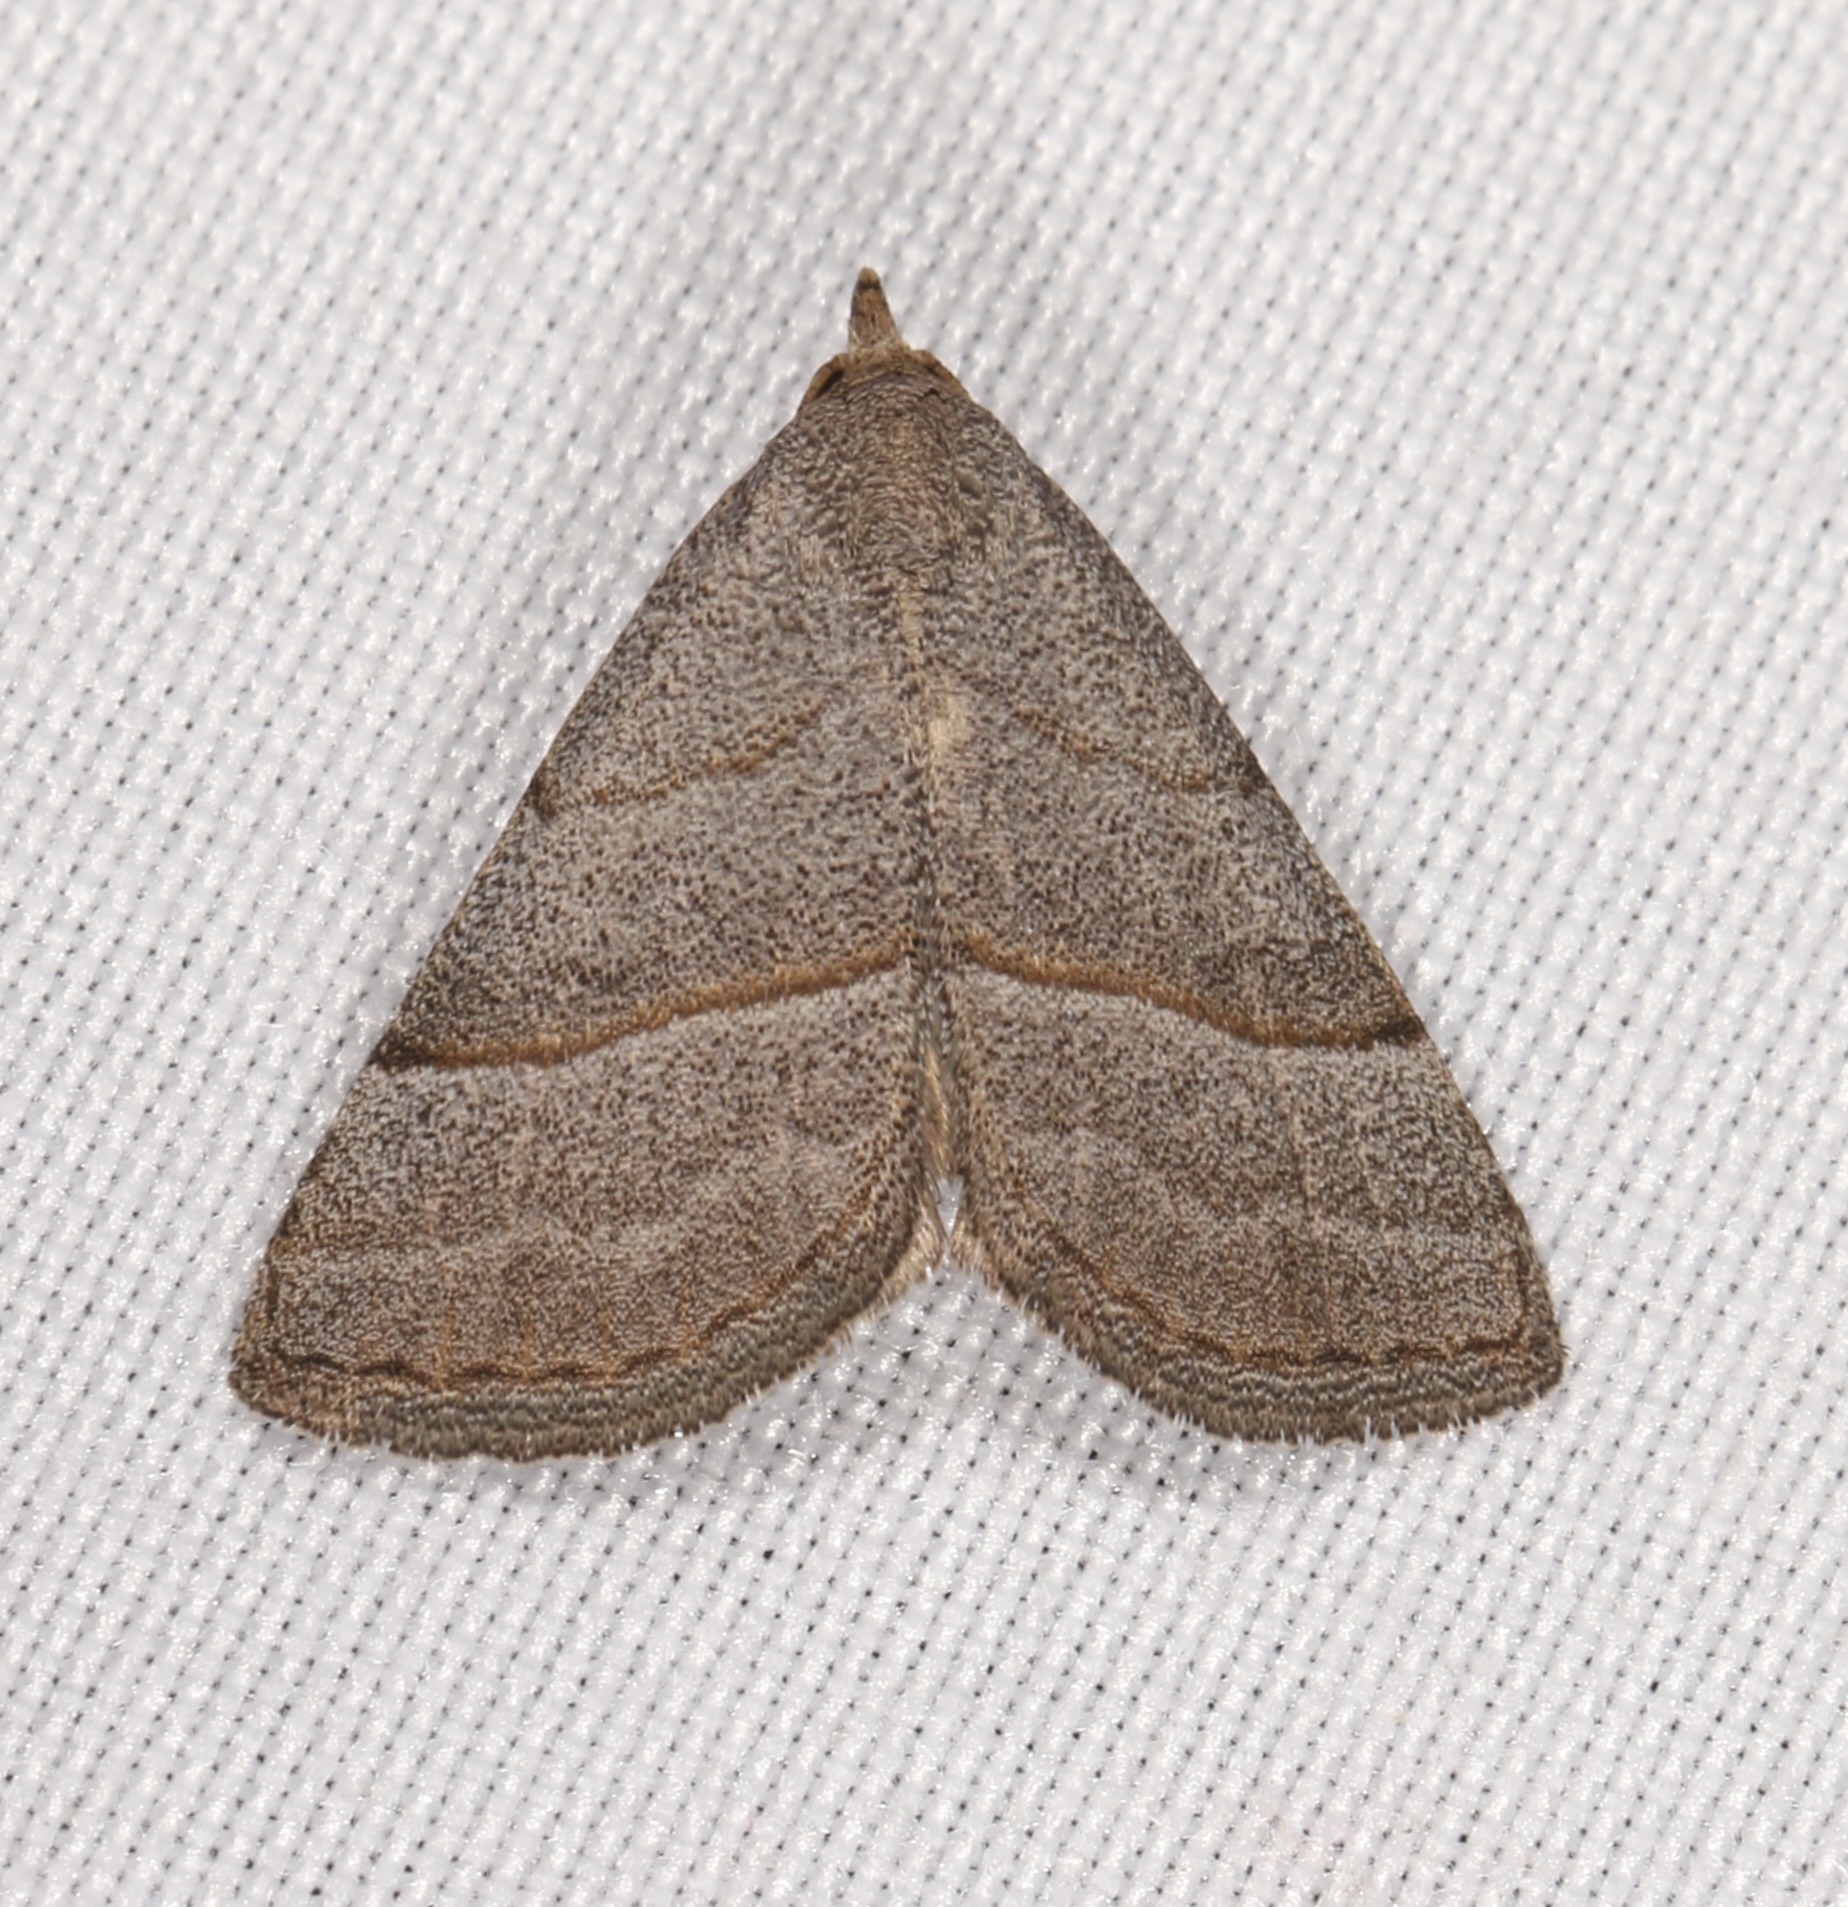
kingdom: Animalia
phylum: Arthropoda
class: Insecta
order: Lepidoptera
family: Erebidae
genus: Zelicodes
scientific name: Zelicodes linearis
